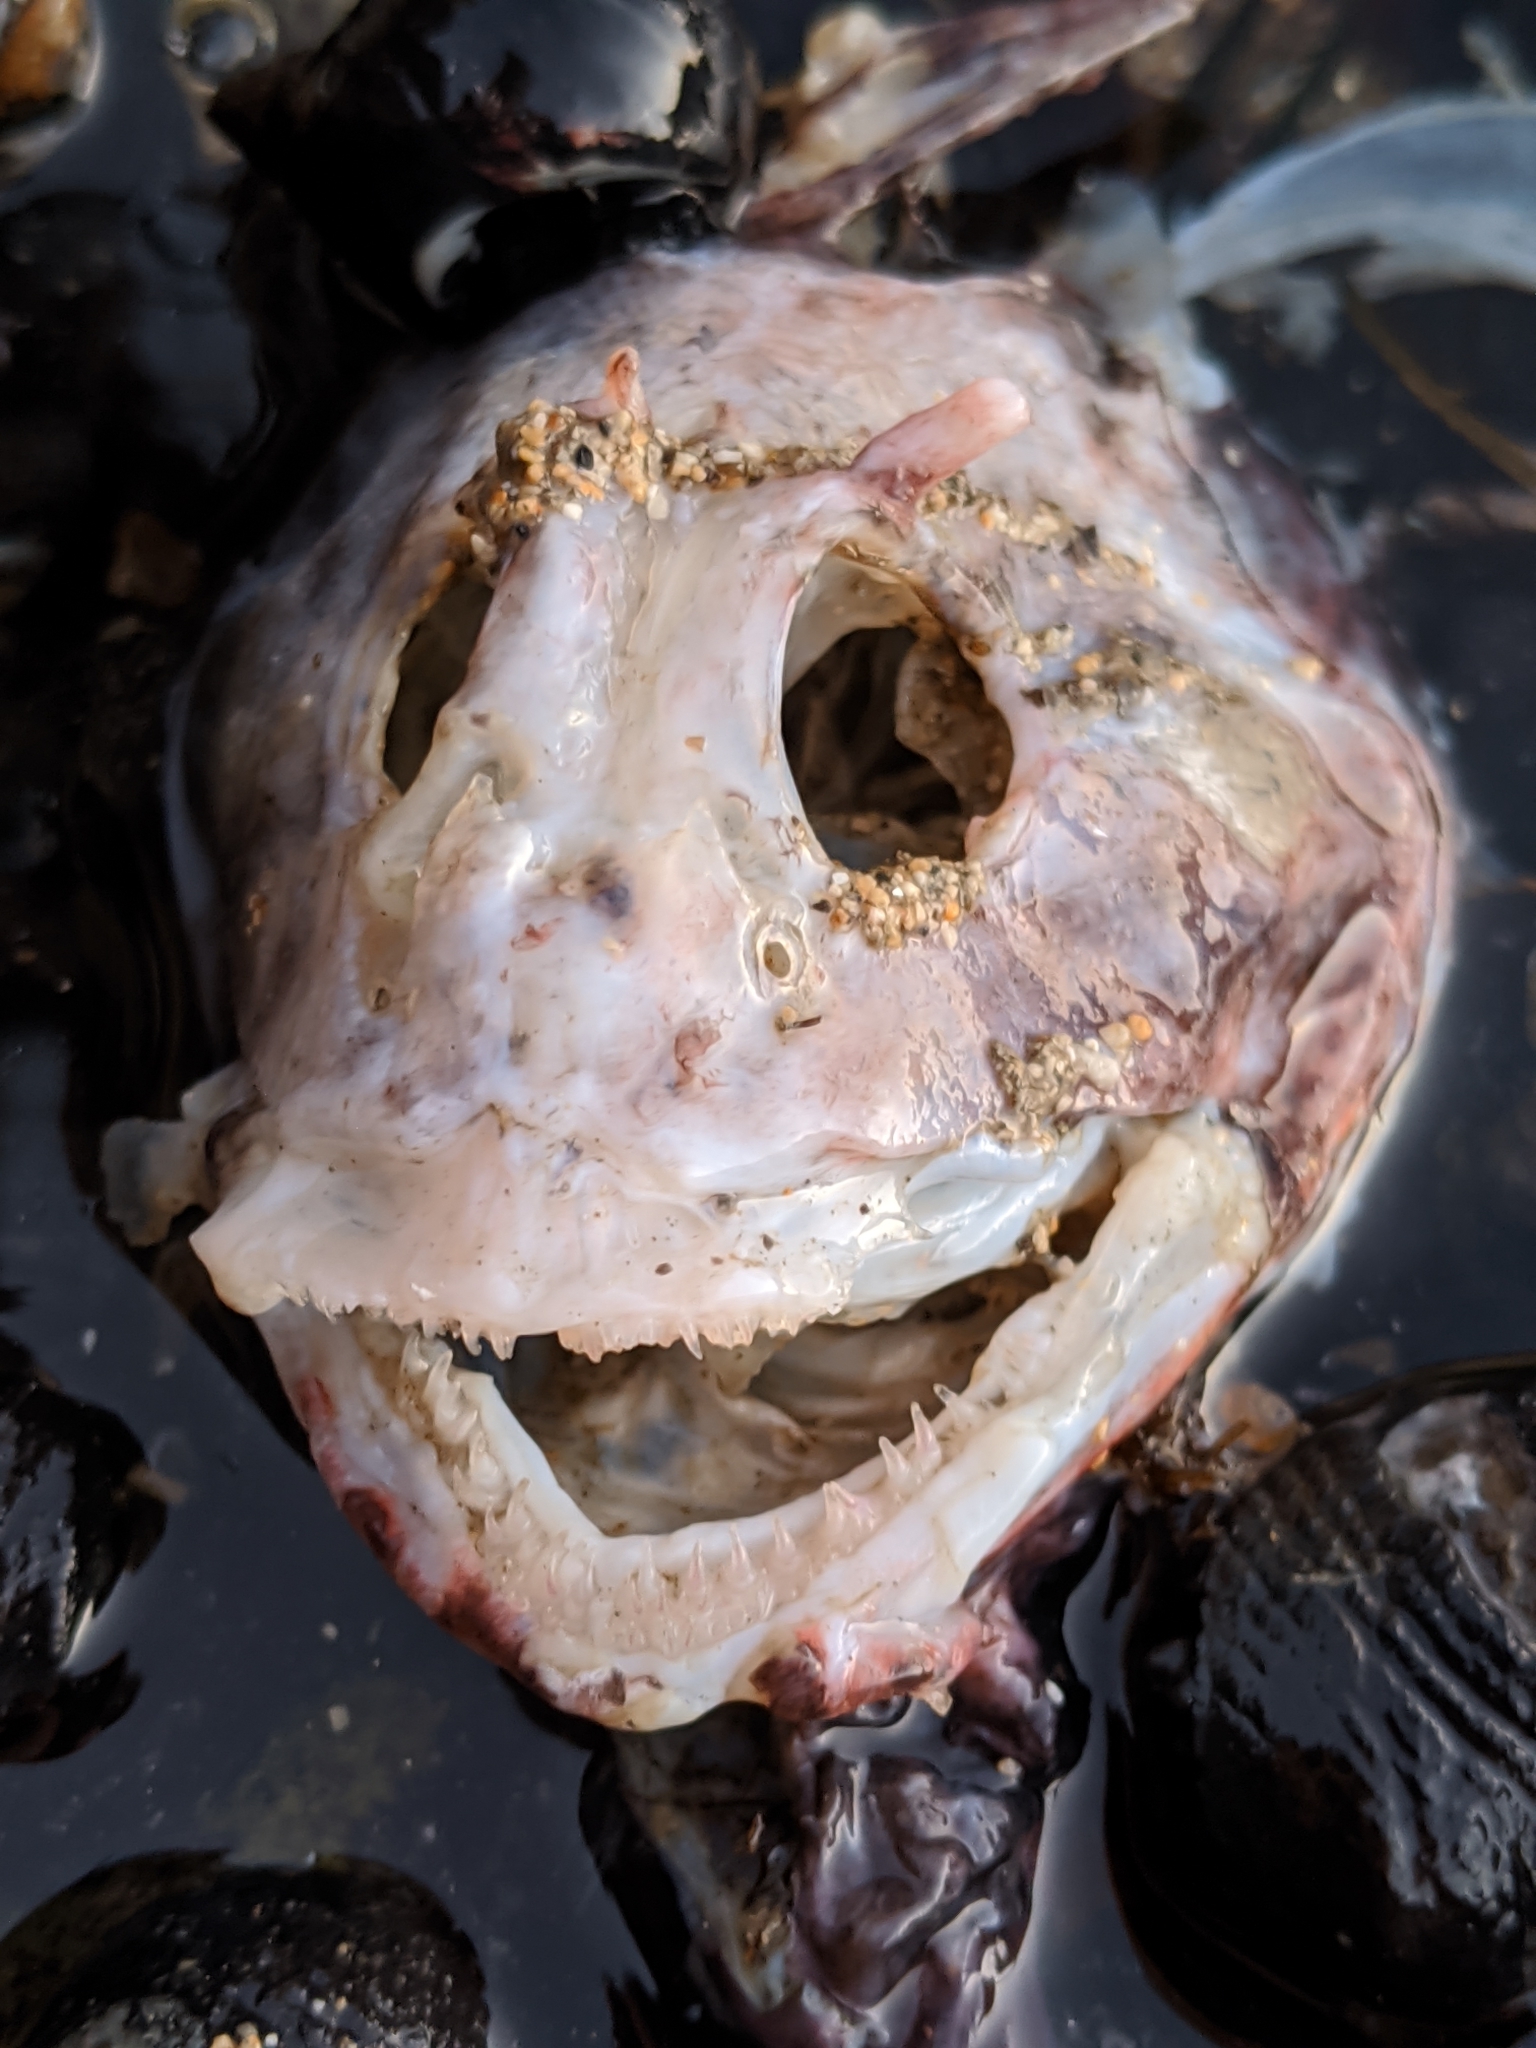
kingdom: Animalia
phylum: Chordata
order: Scorpaeniformes
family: Cottidae
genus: Scorpaenichthys
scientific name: Scorpaenichthys marmoratus
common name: Cabezon
